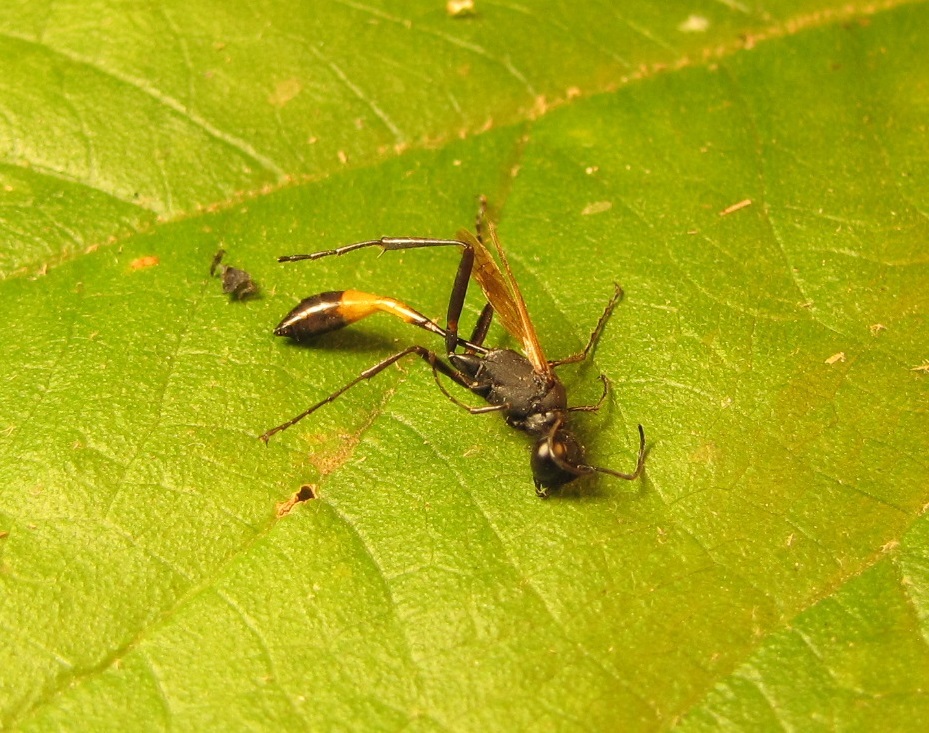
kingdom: Animalia
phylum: Arthropoda
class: Insecta
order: Hymenoptera
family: Sphecidae
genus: Ammophila
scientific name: Ammophila pictipennis
